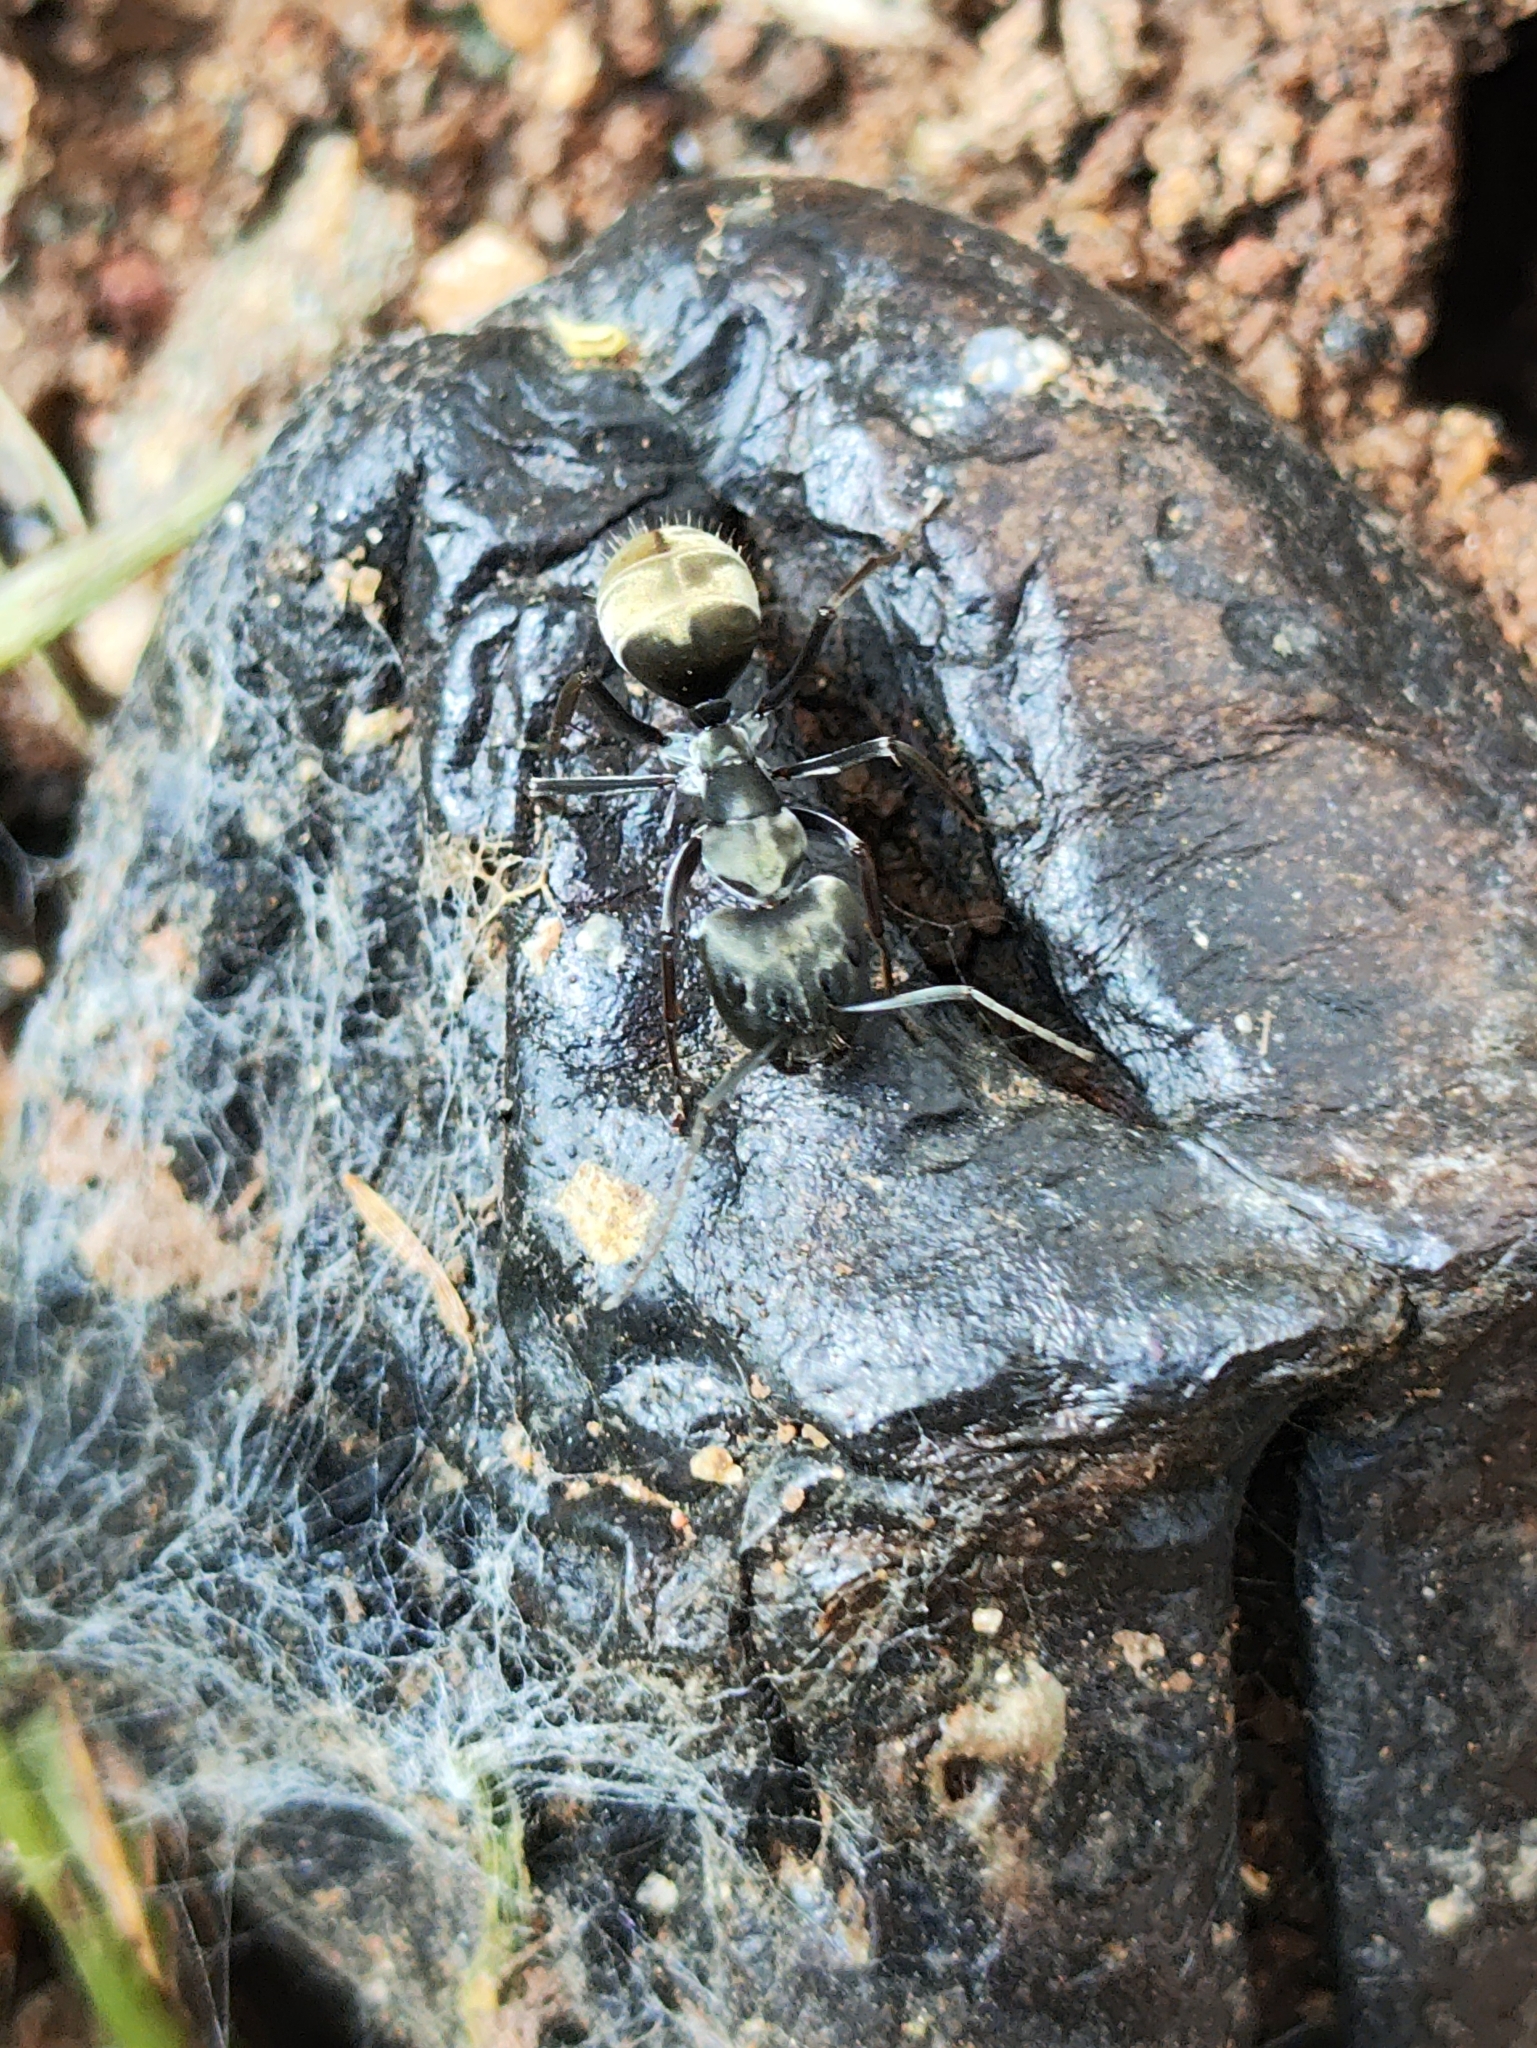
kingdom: Animalia
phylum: Arthropoda
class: Insecta
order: Hymenoptera
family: Formicidae
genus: Camponotus
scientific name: Camponotus parius
